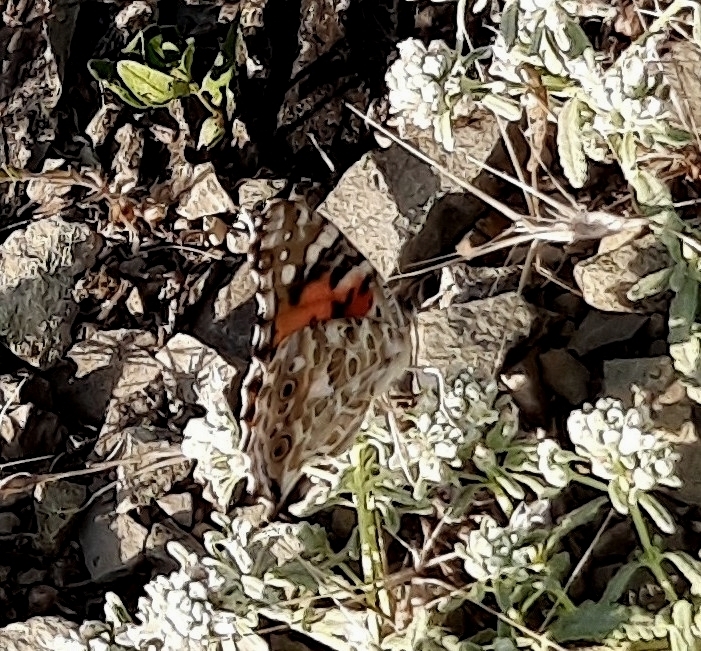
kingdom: Animalia
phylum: Arthropoda
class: Insecta
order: Lepidoptera
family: Nymphalidae
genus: Vanessa
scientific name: Vanessa cardui
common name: Painted lady
